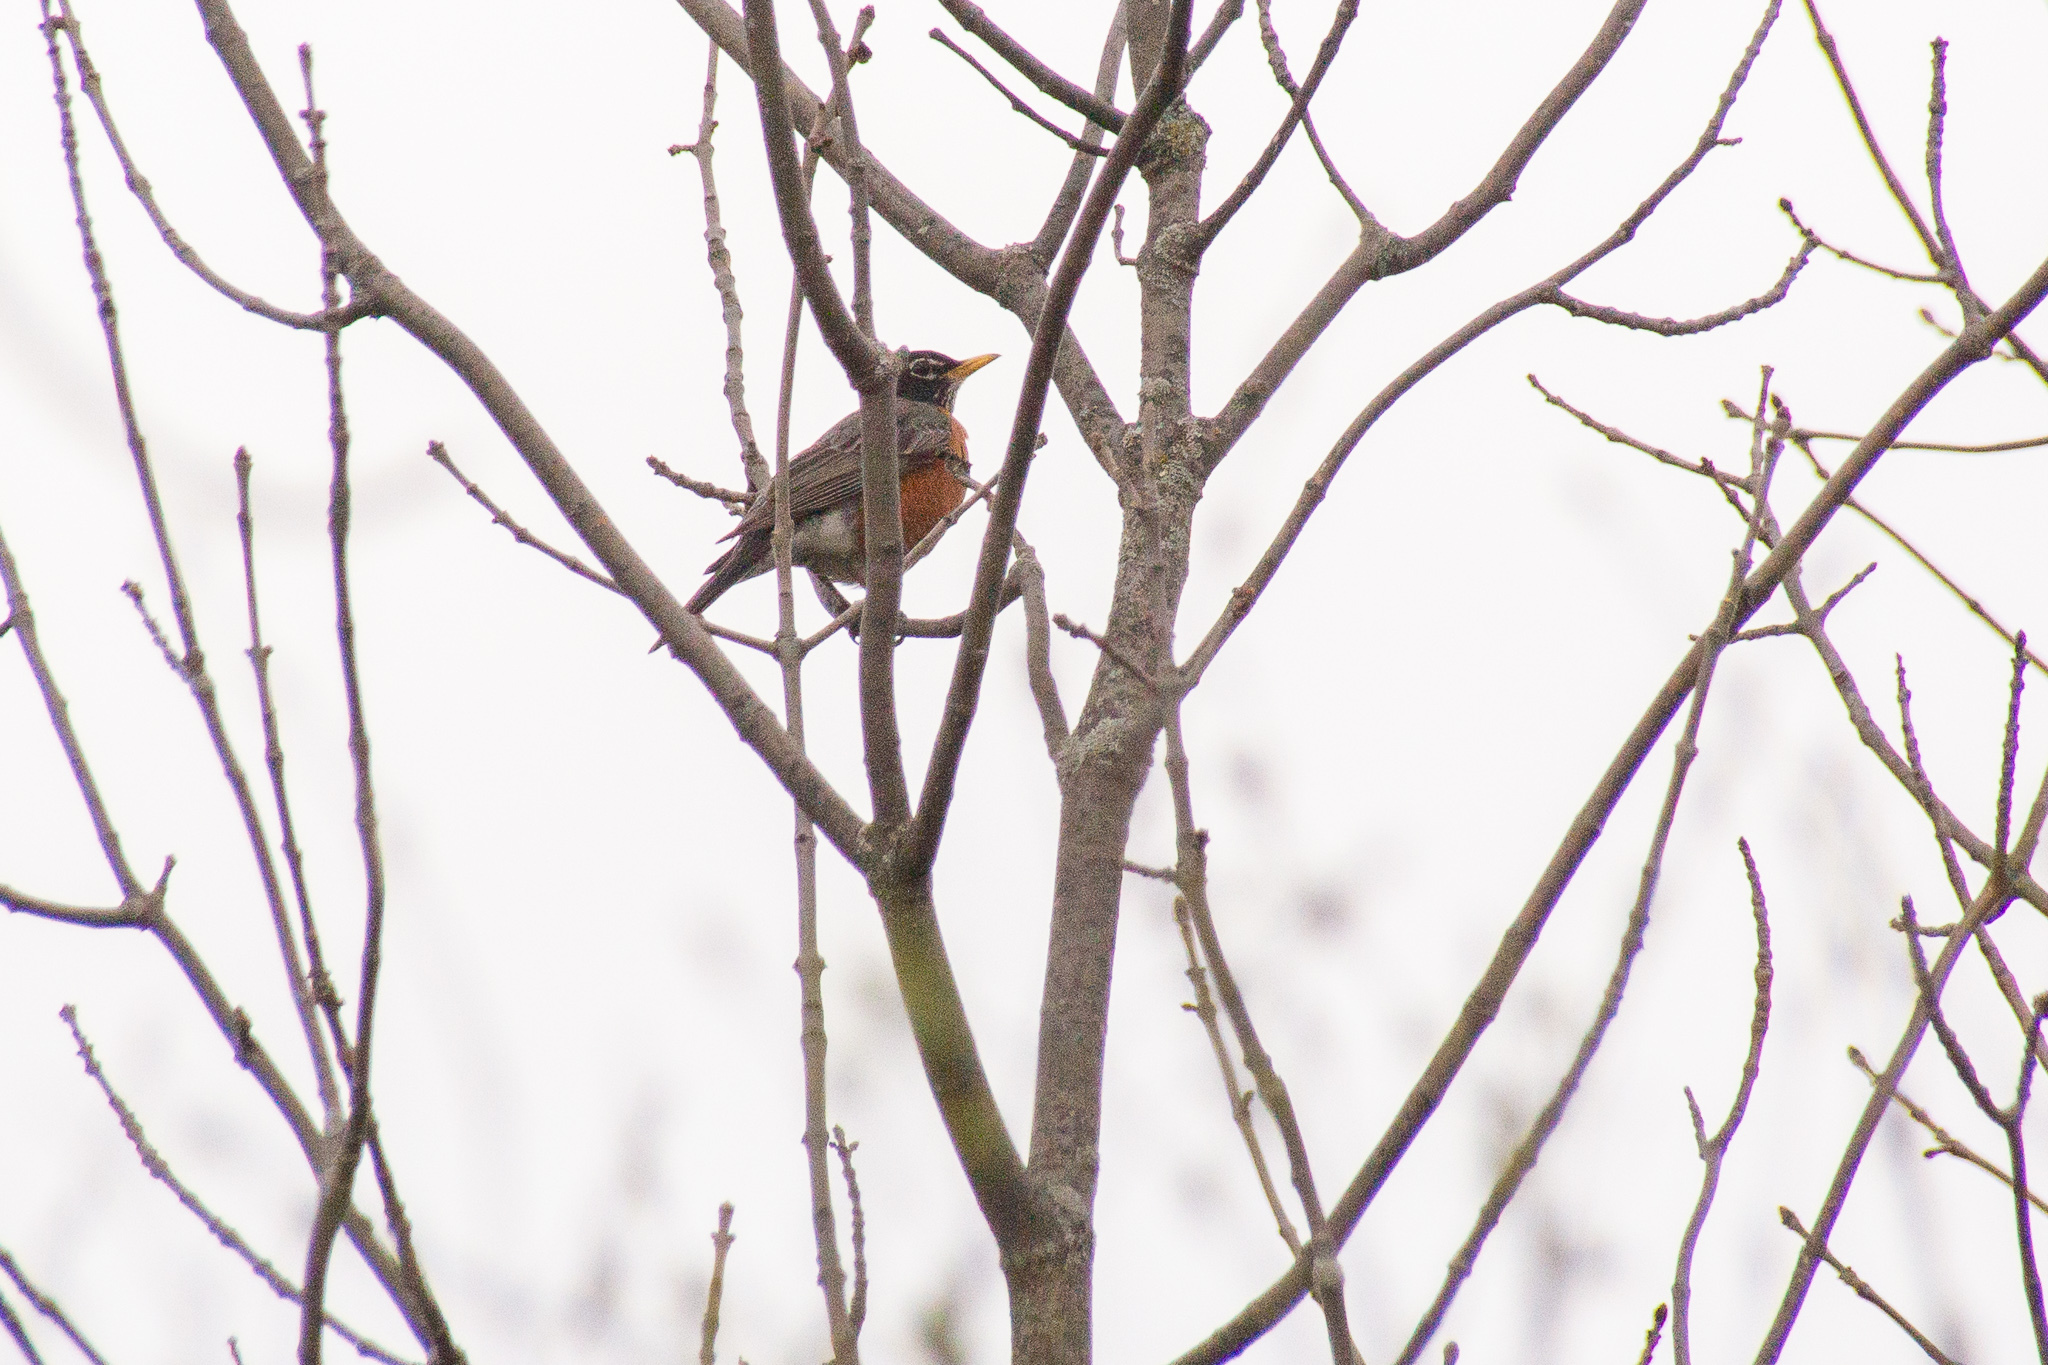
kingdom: Animalia
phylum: Chordata
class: Aves
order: Passeriformes
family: Turdidae
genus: Turdus
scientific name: Turdus migratorius
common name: American robin
